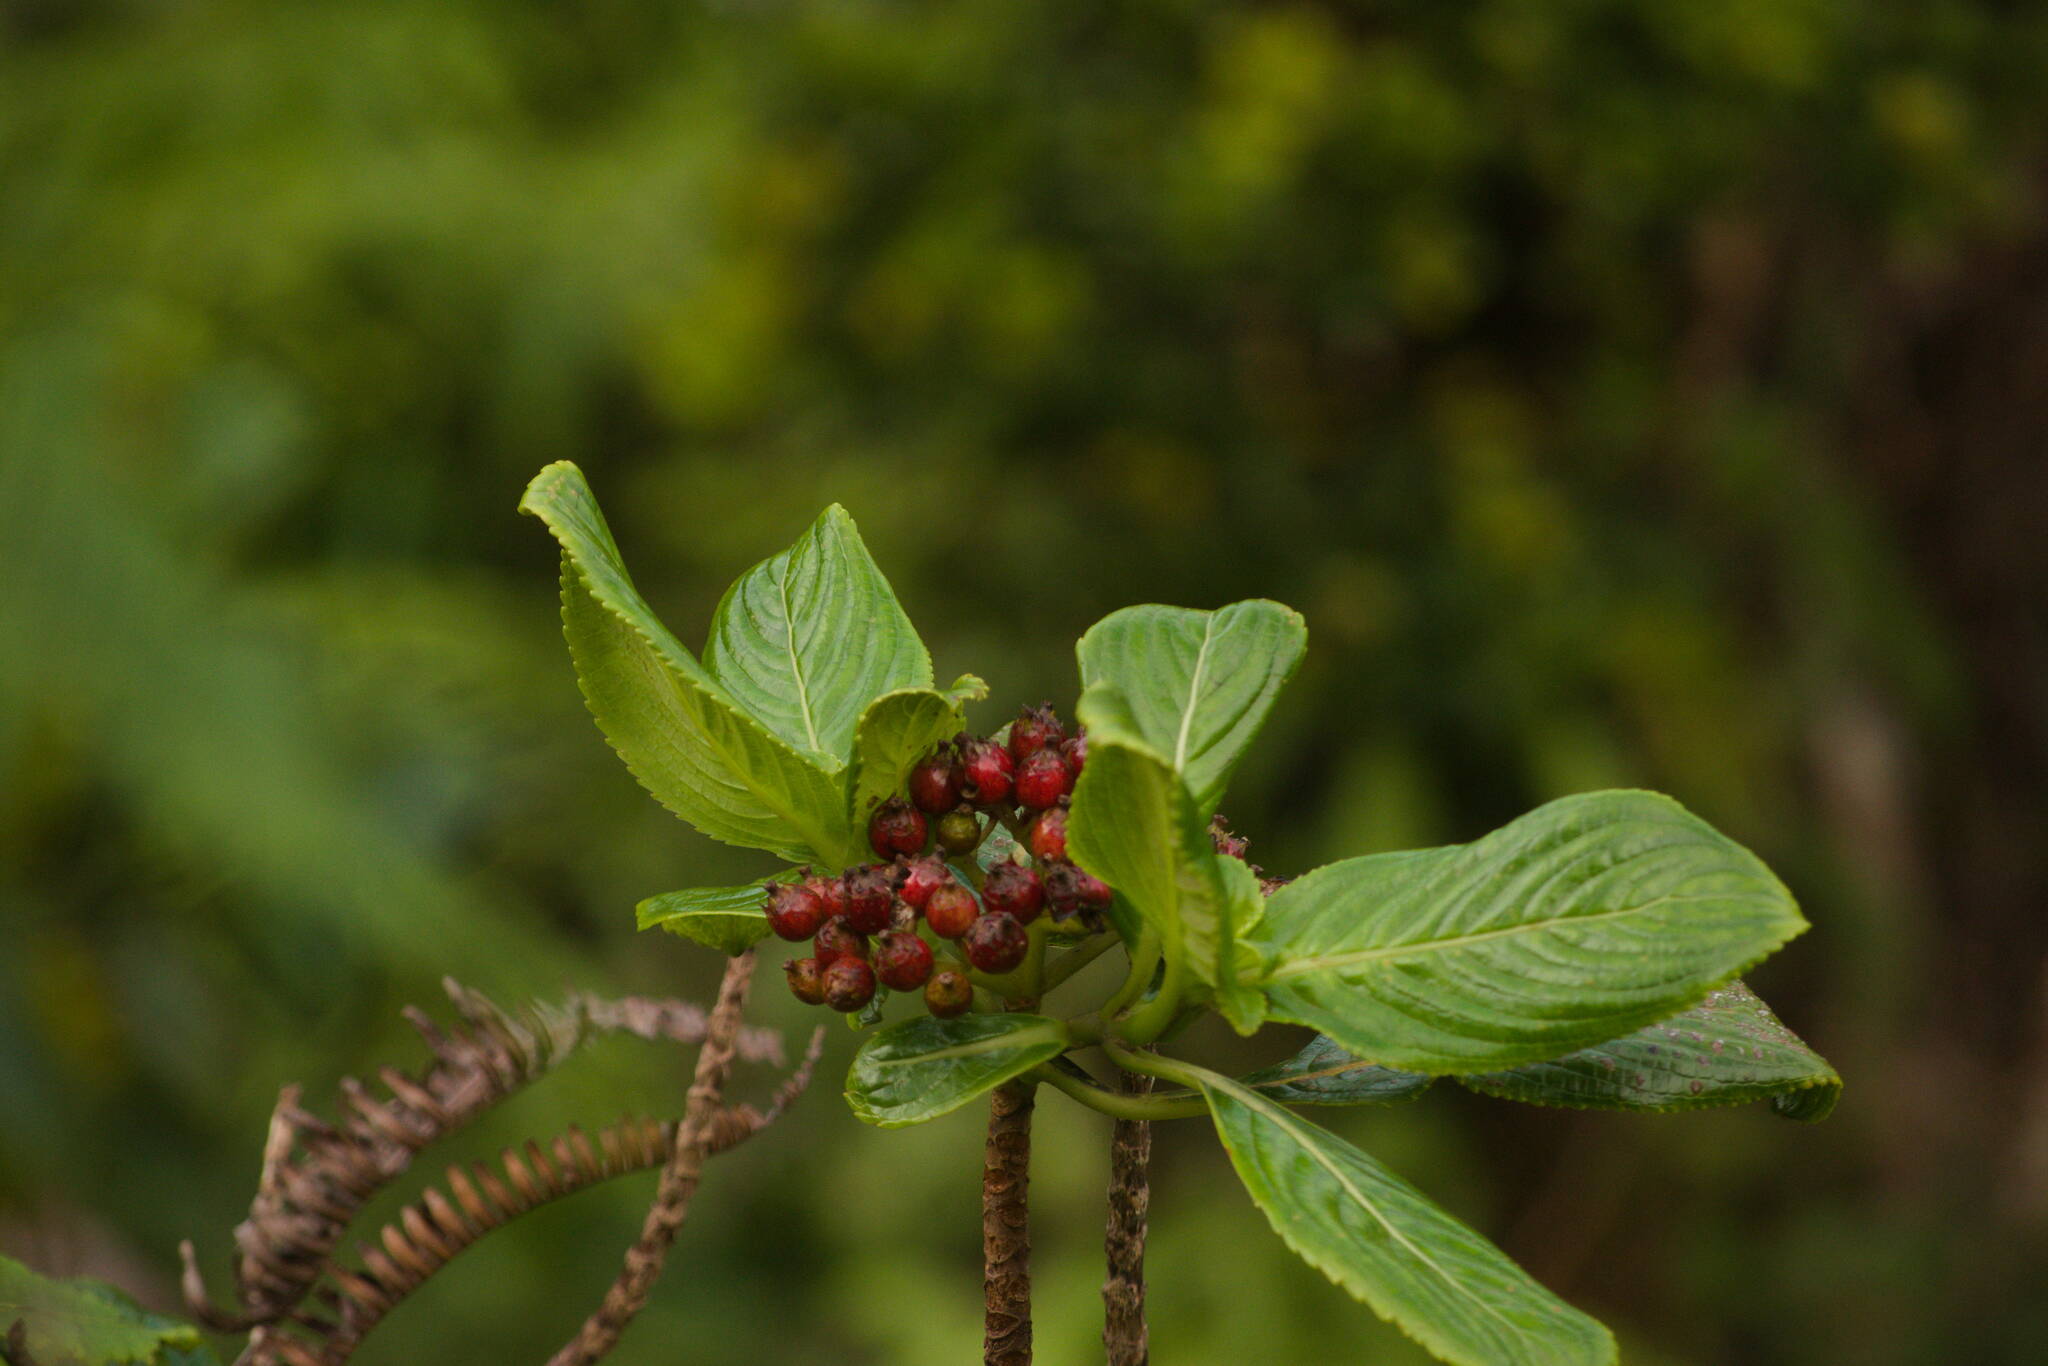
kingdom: Plantae
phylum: Tracheophyta
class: Magnoliopsida
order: Cornales
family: Hydrangeaceae
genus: Hydrangea
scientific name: Hydrangea arguta
